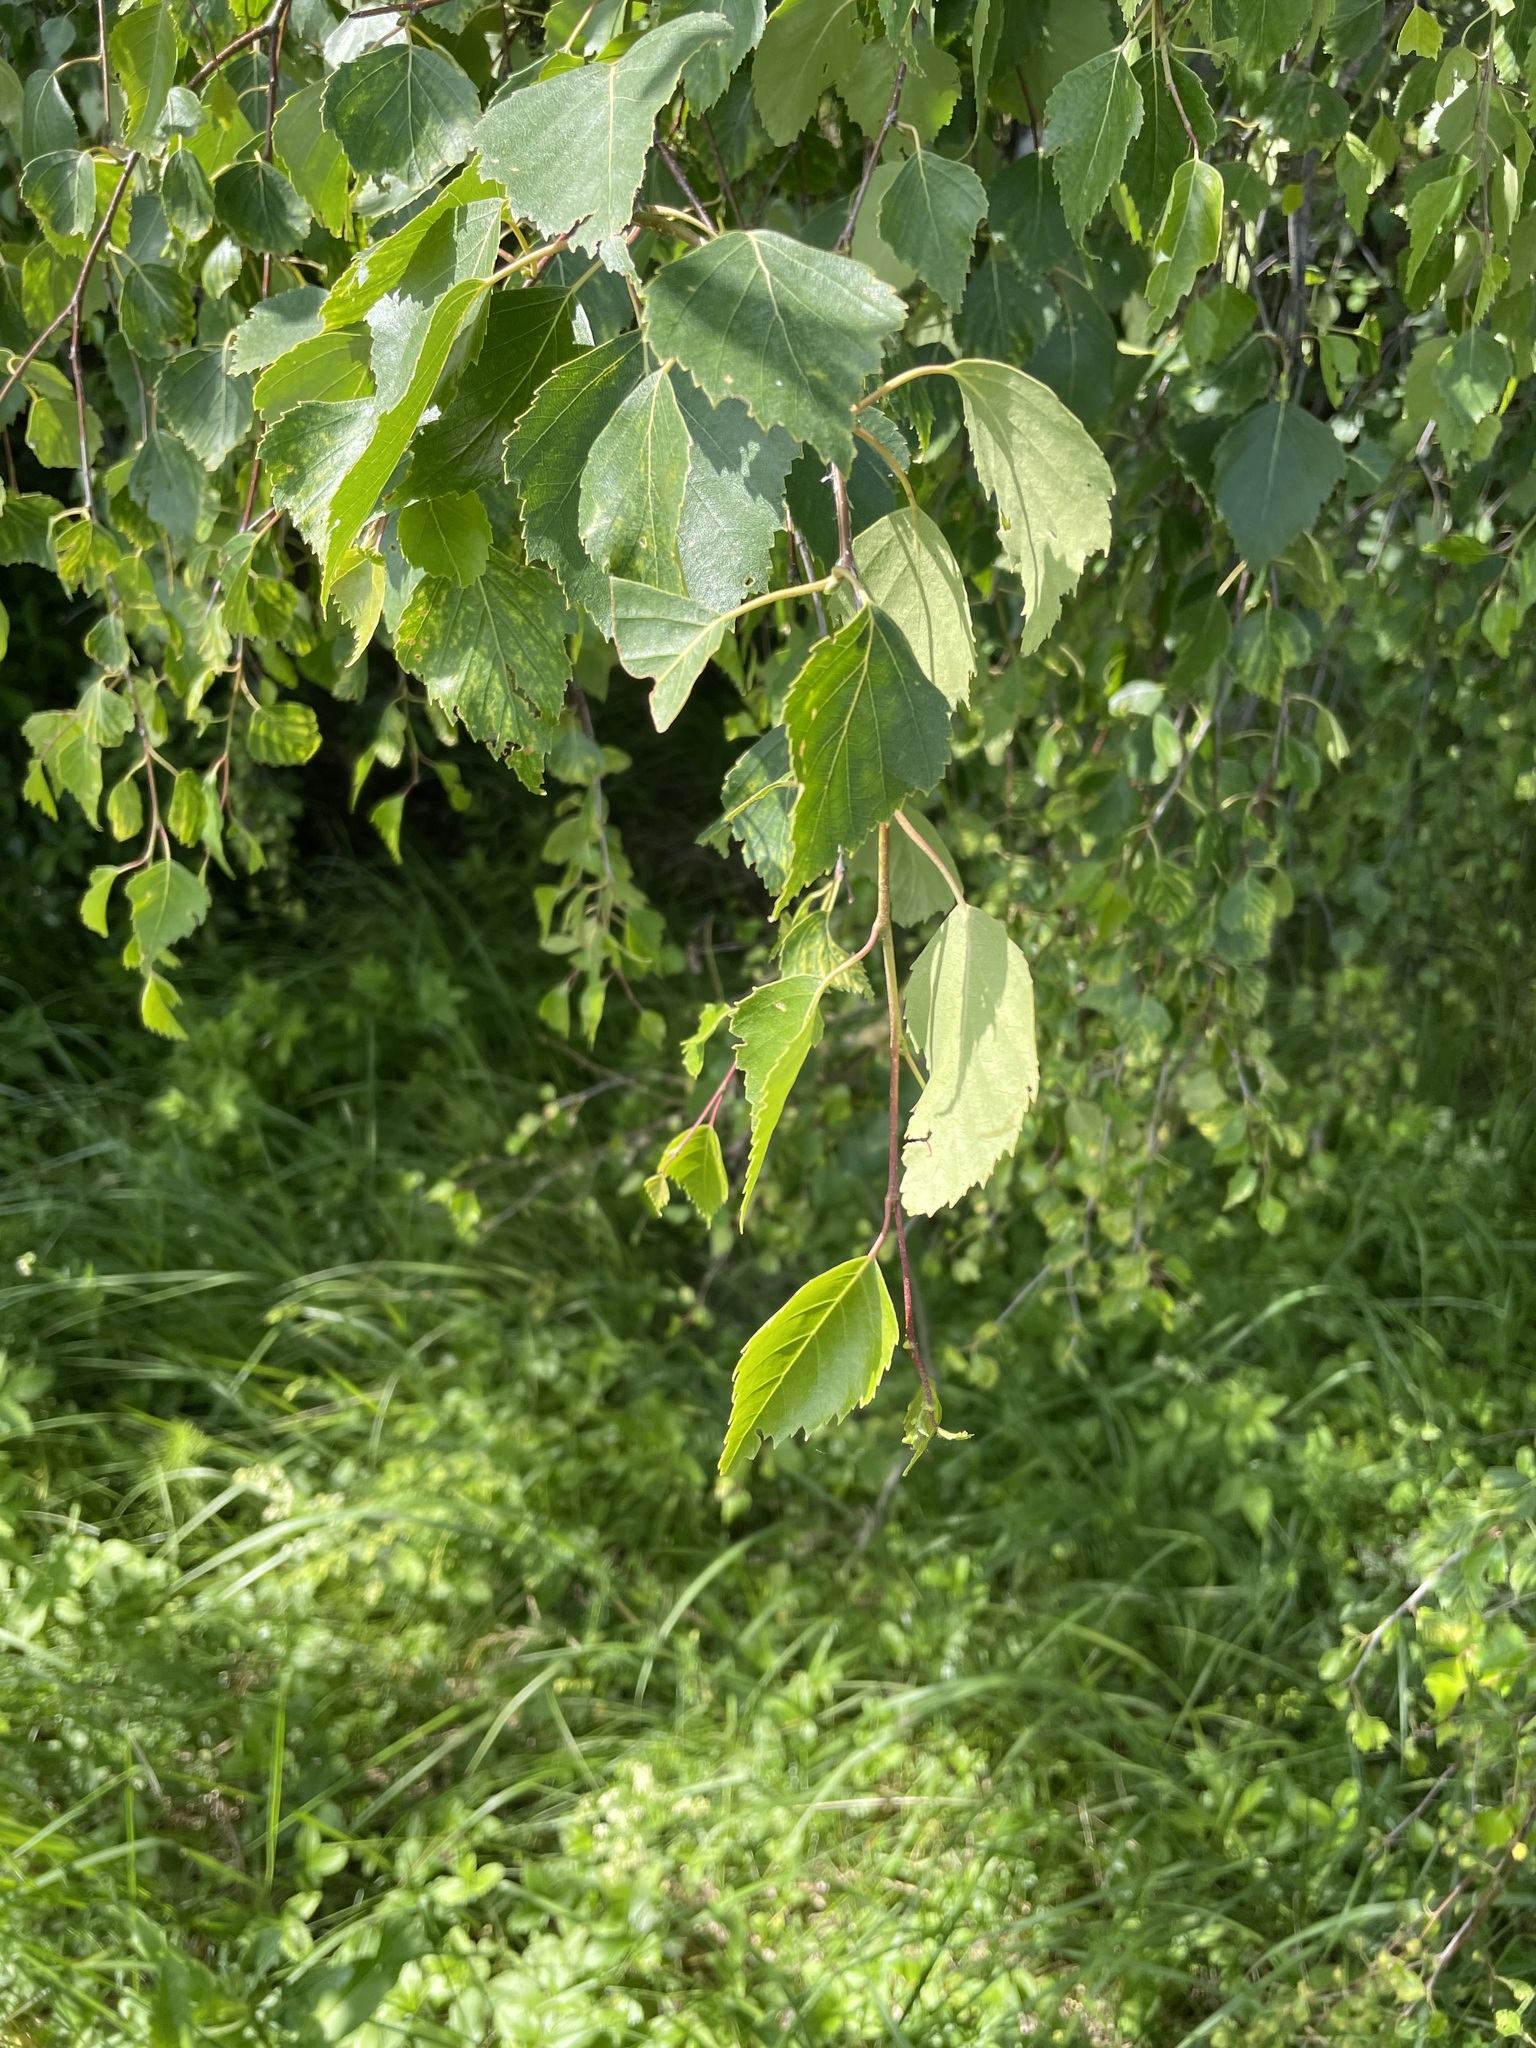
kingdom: Plantae
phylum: Tracheophyta
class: Magnoliopsida
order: Fagales
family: Betulaceae
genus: Betula
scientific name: Betula pendula
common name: Silver birch
